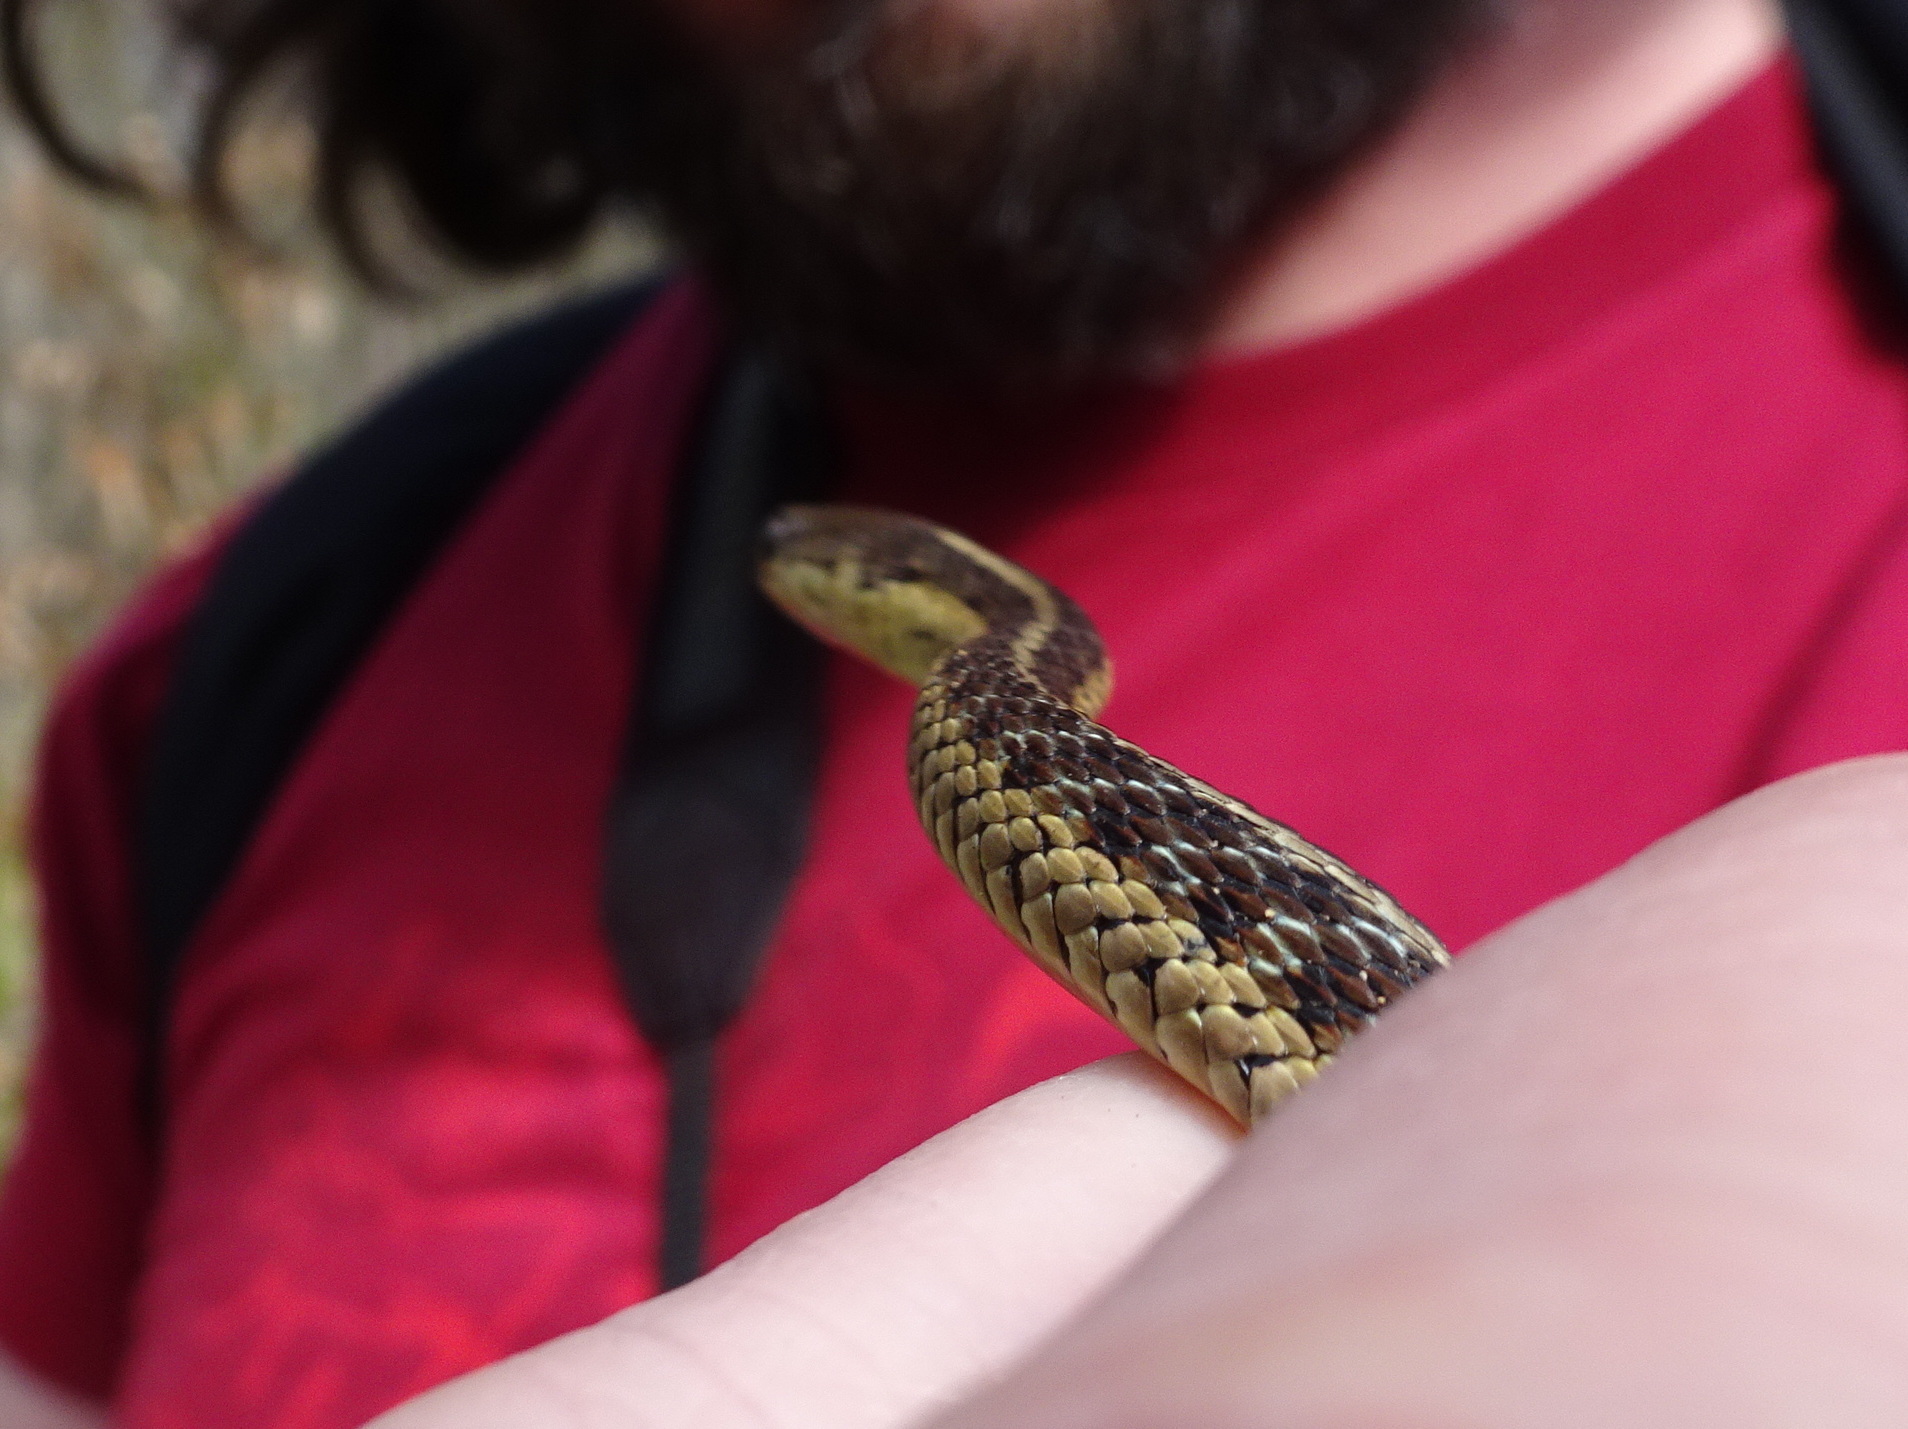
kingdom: Animalia
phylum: Chordata
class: Squamata
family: Colubridae
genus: Thamnophis
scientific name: Thamnophis sirtalis
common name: Common garter snake
